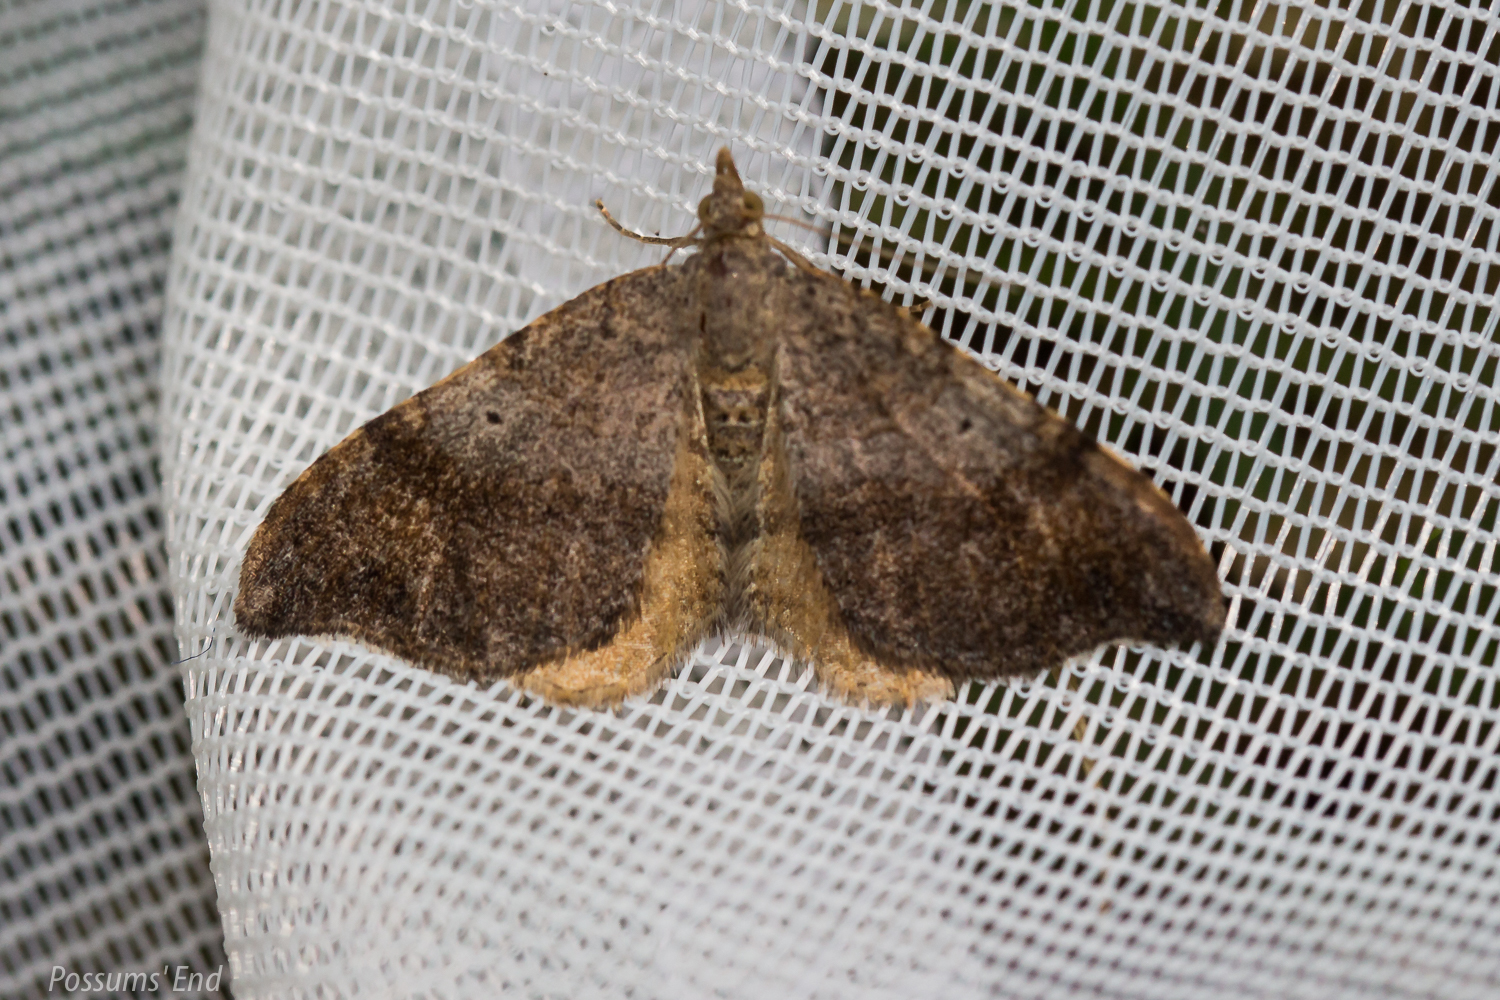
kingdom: Animalia
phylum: Arthropoda
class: Insecta
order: Lepidoptera
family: Geometridae
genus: Homodotis
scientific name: Homodotis megaspilata
